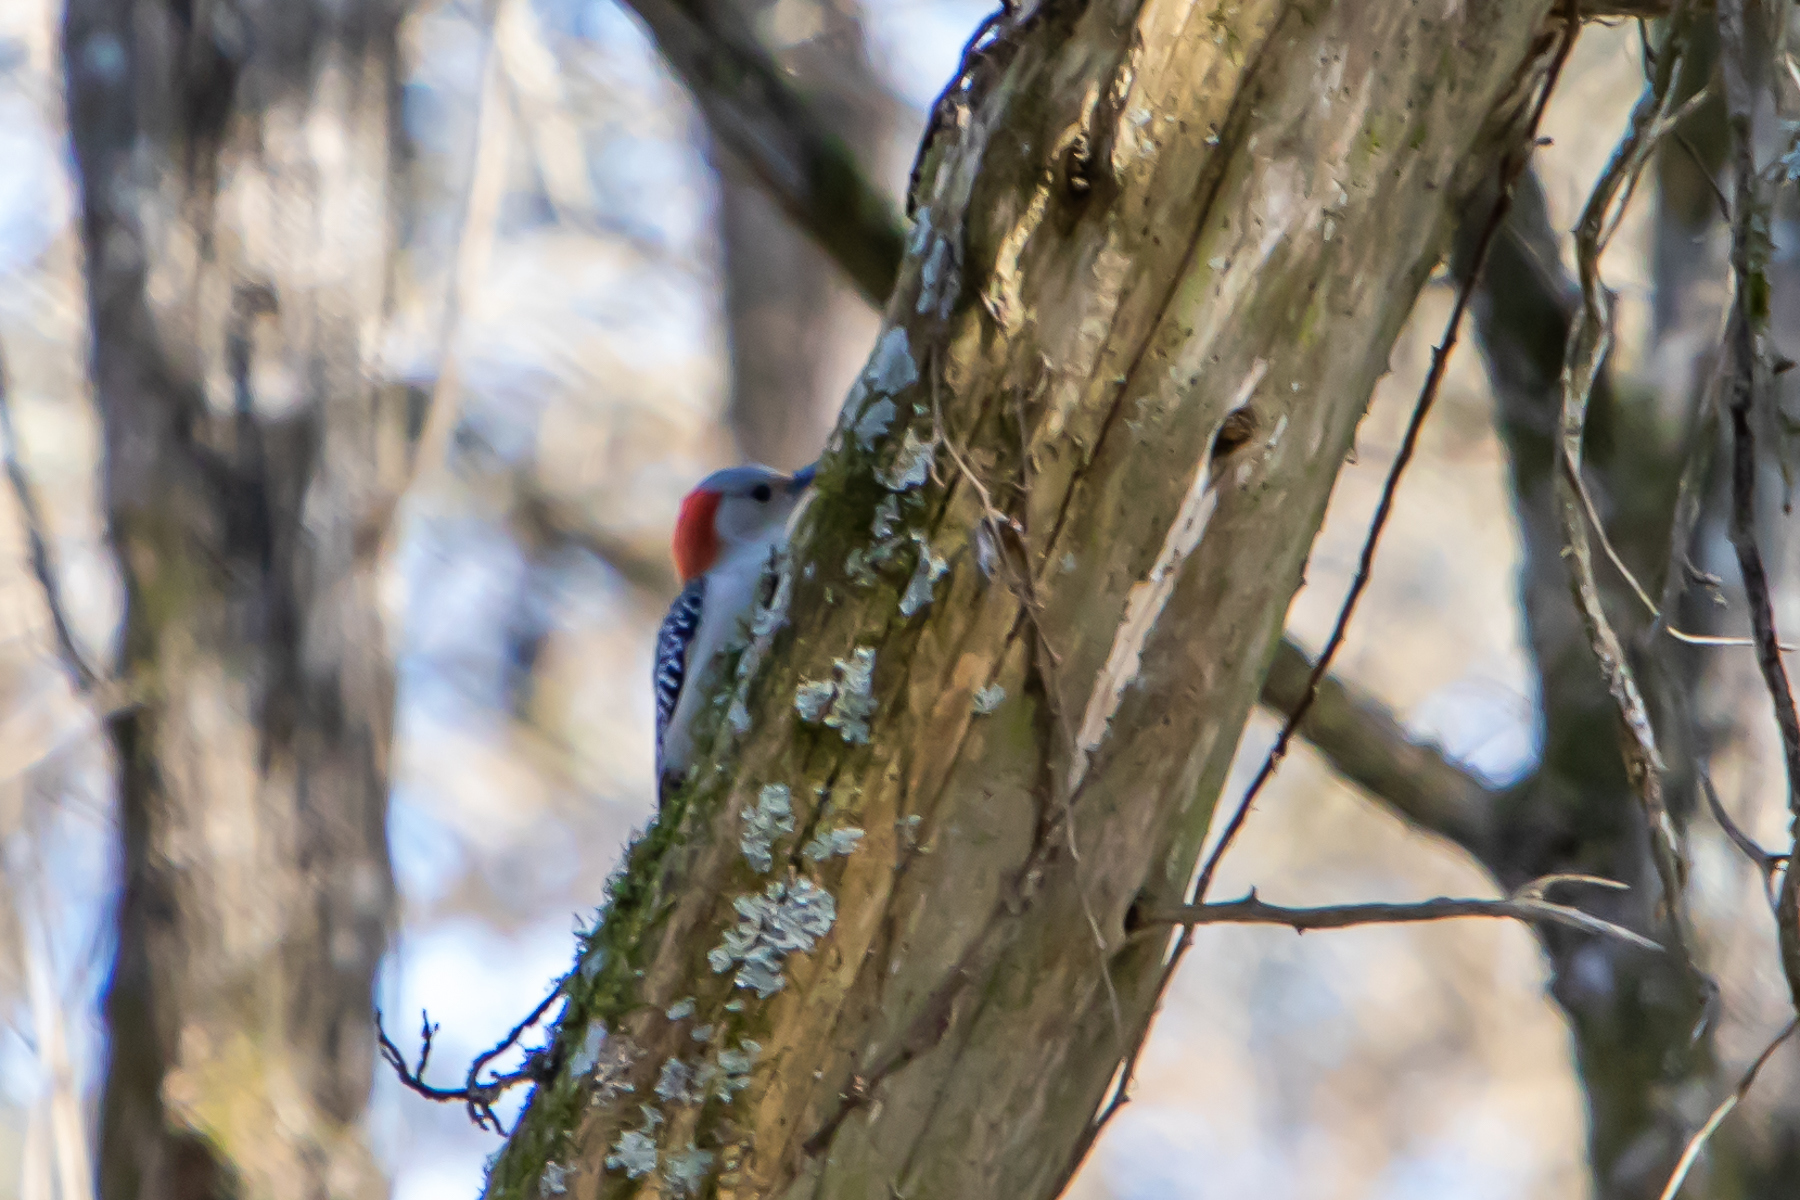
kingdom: Animalia
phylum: Chordata
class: Aves
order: Piciformes
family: Picidae
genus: Melanerpes
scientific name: Melanerpes carolinus
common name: Red-bellied woodpecker
